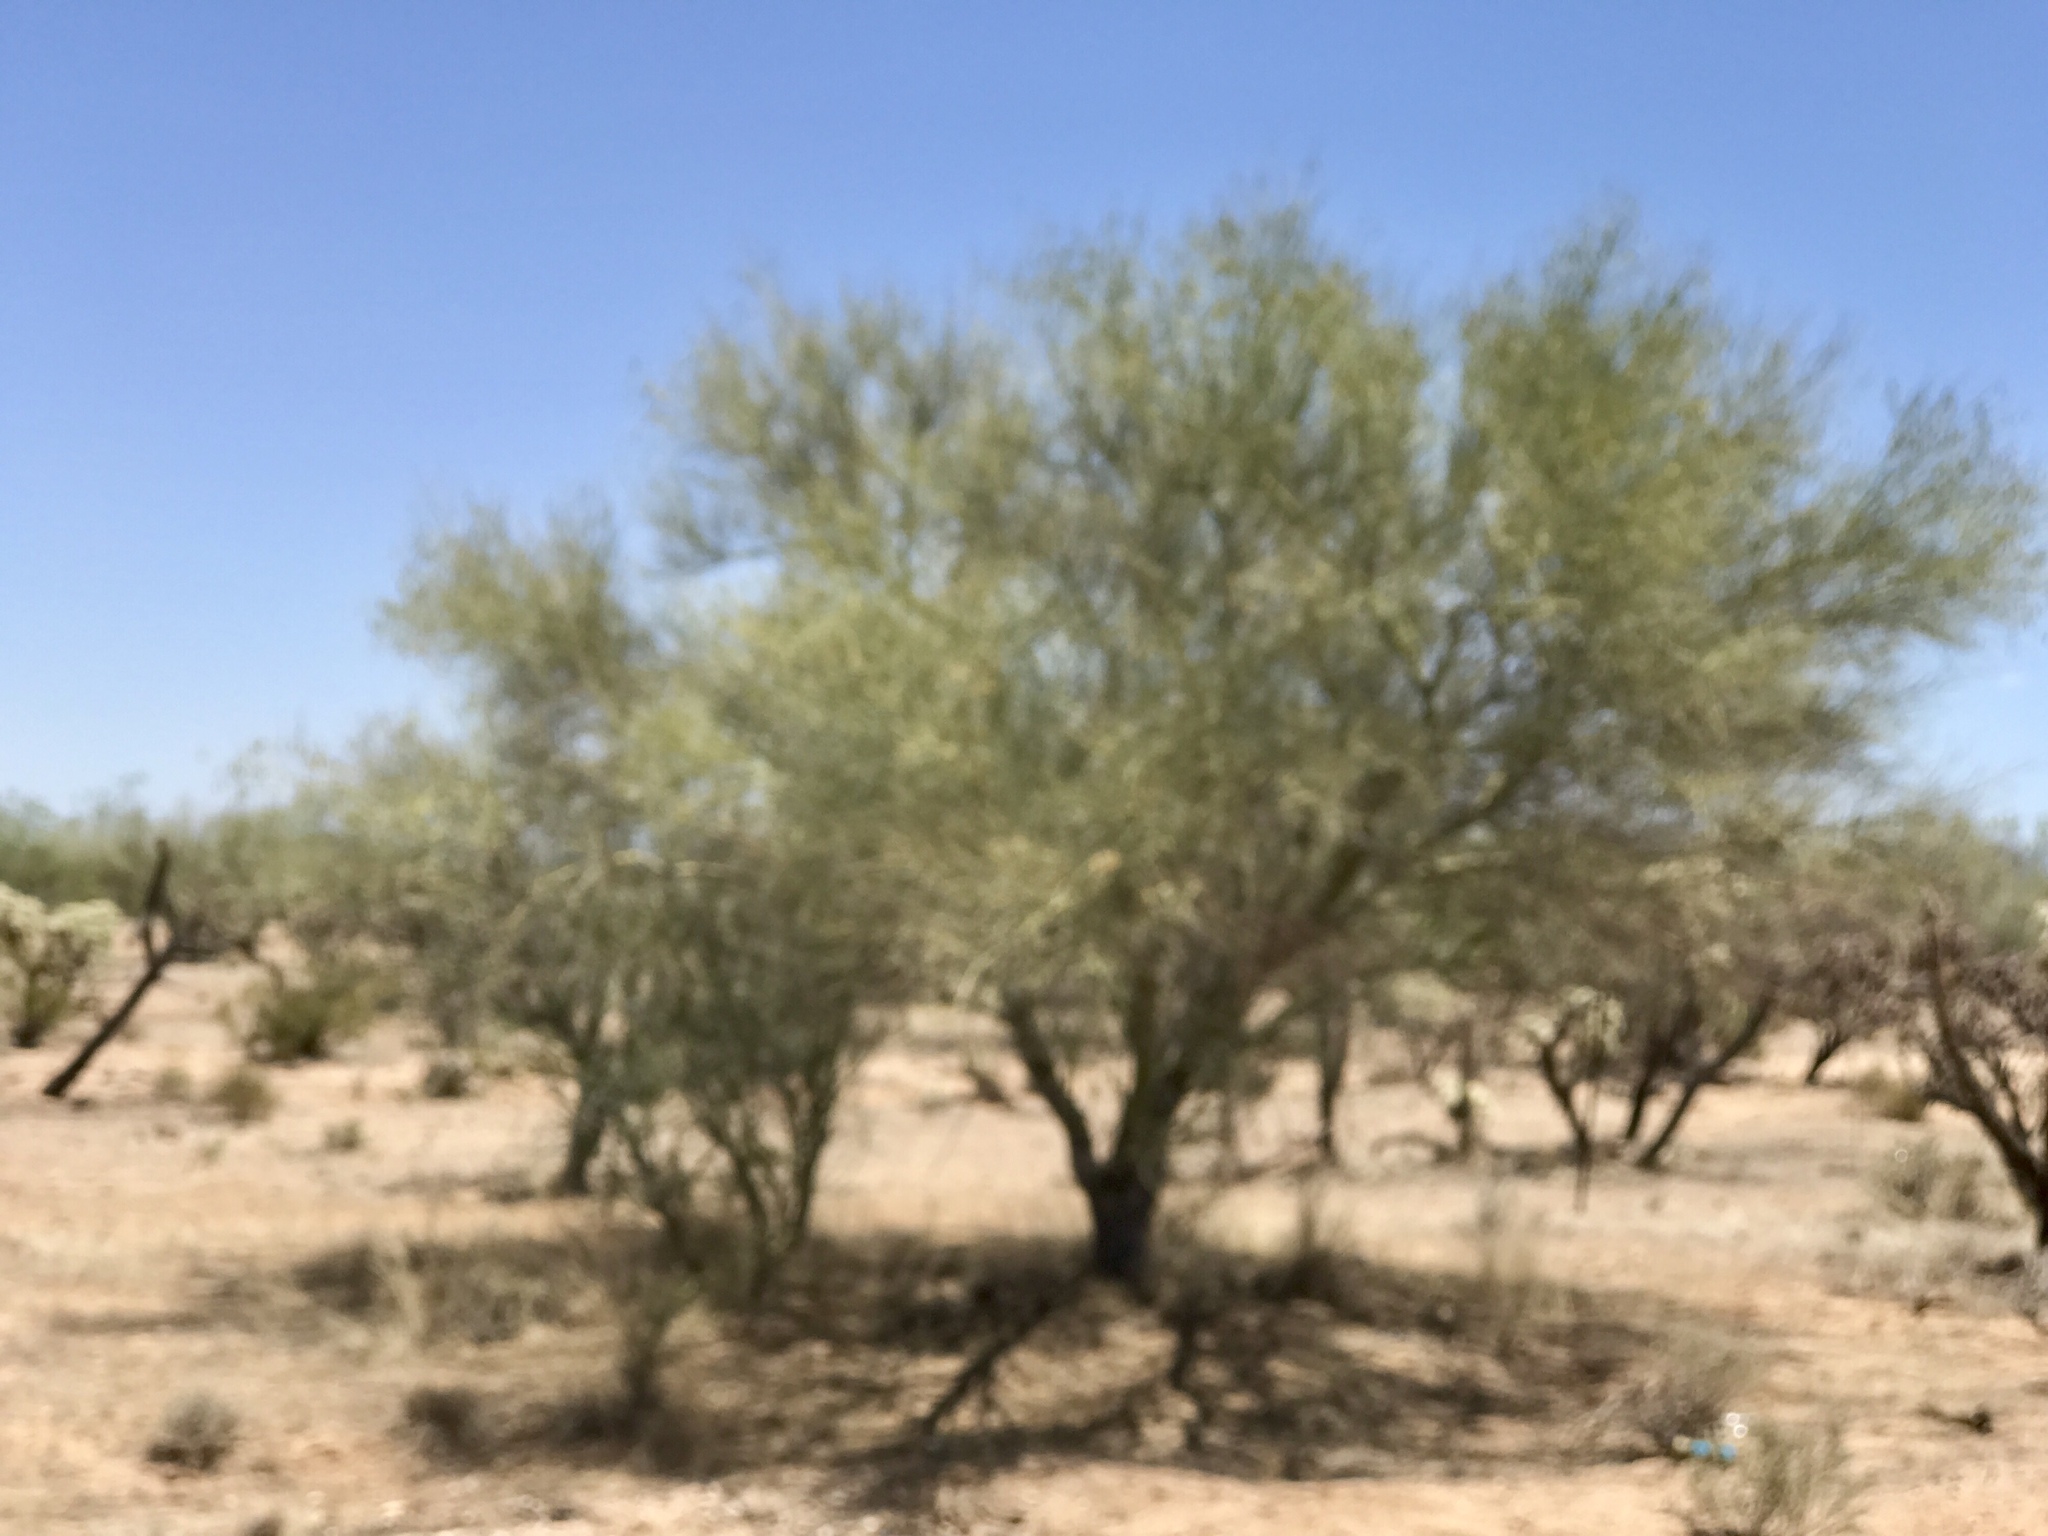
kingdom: Plantae
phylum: Tracheophyta
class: Magnoliopsida
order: Fabales
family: Fabaceae
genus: Parkinsonia
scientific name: Parkinsonia microphylla
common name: Yellow paloverde
